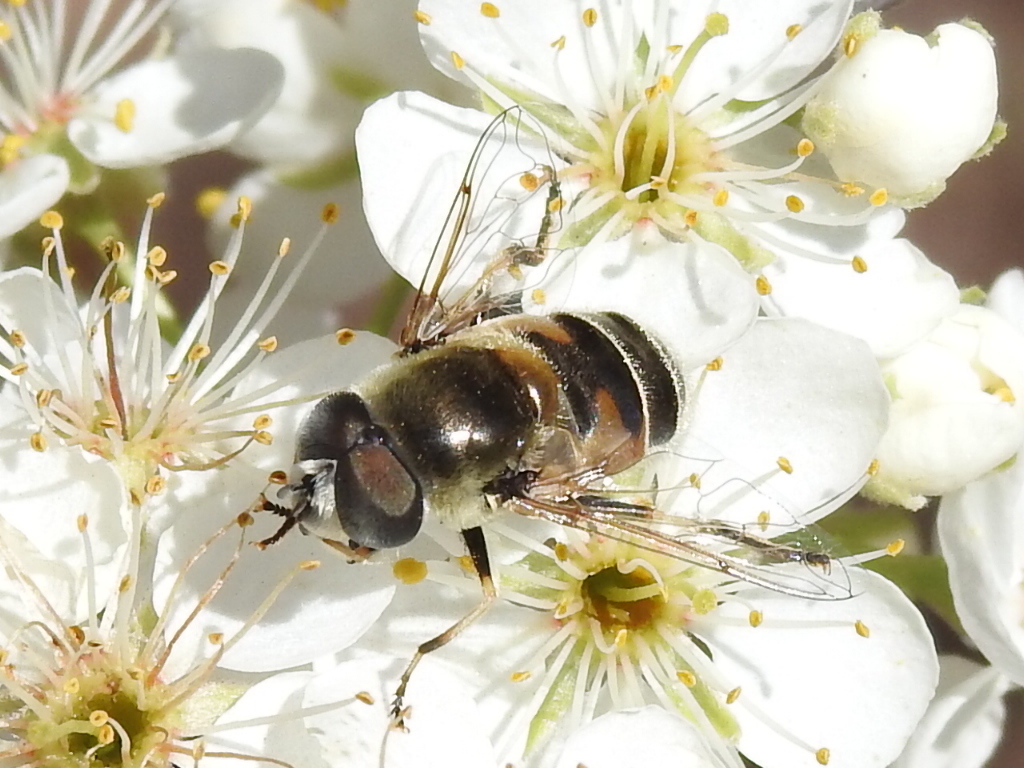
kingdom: Animalia
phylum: Arthropoda
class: Insecta
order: Diptera
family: Syrphidae
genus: Eristalis
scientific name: Eristalis stipator
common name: Yellow-shouldered drone fly
